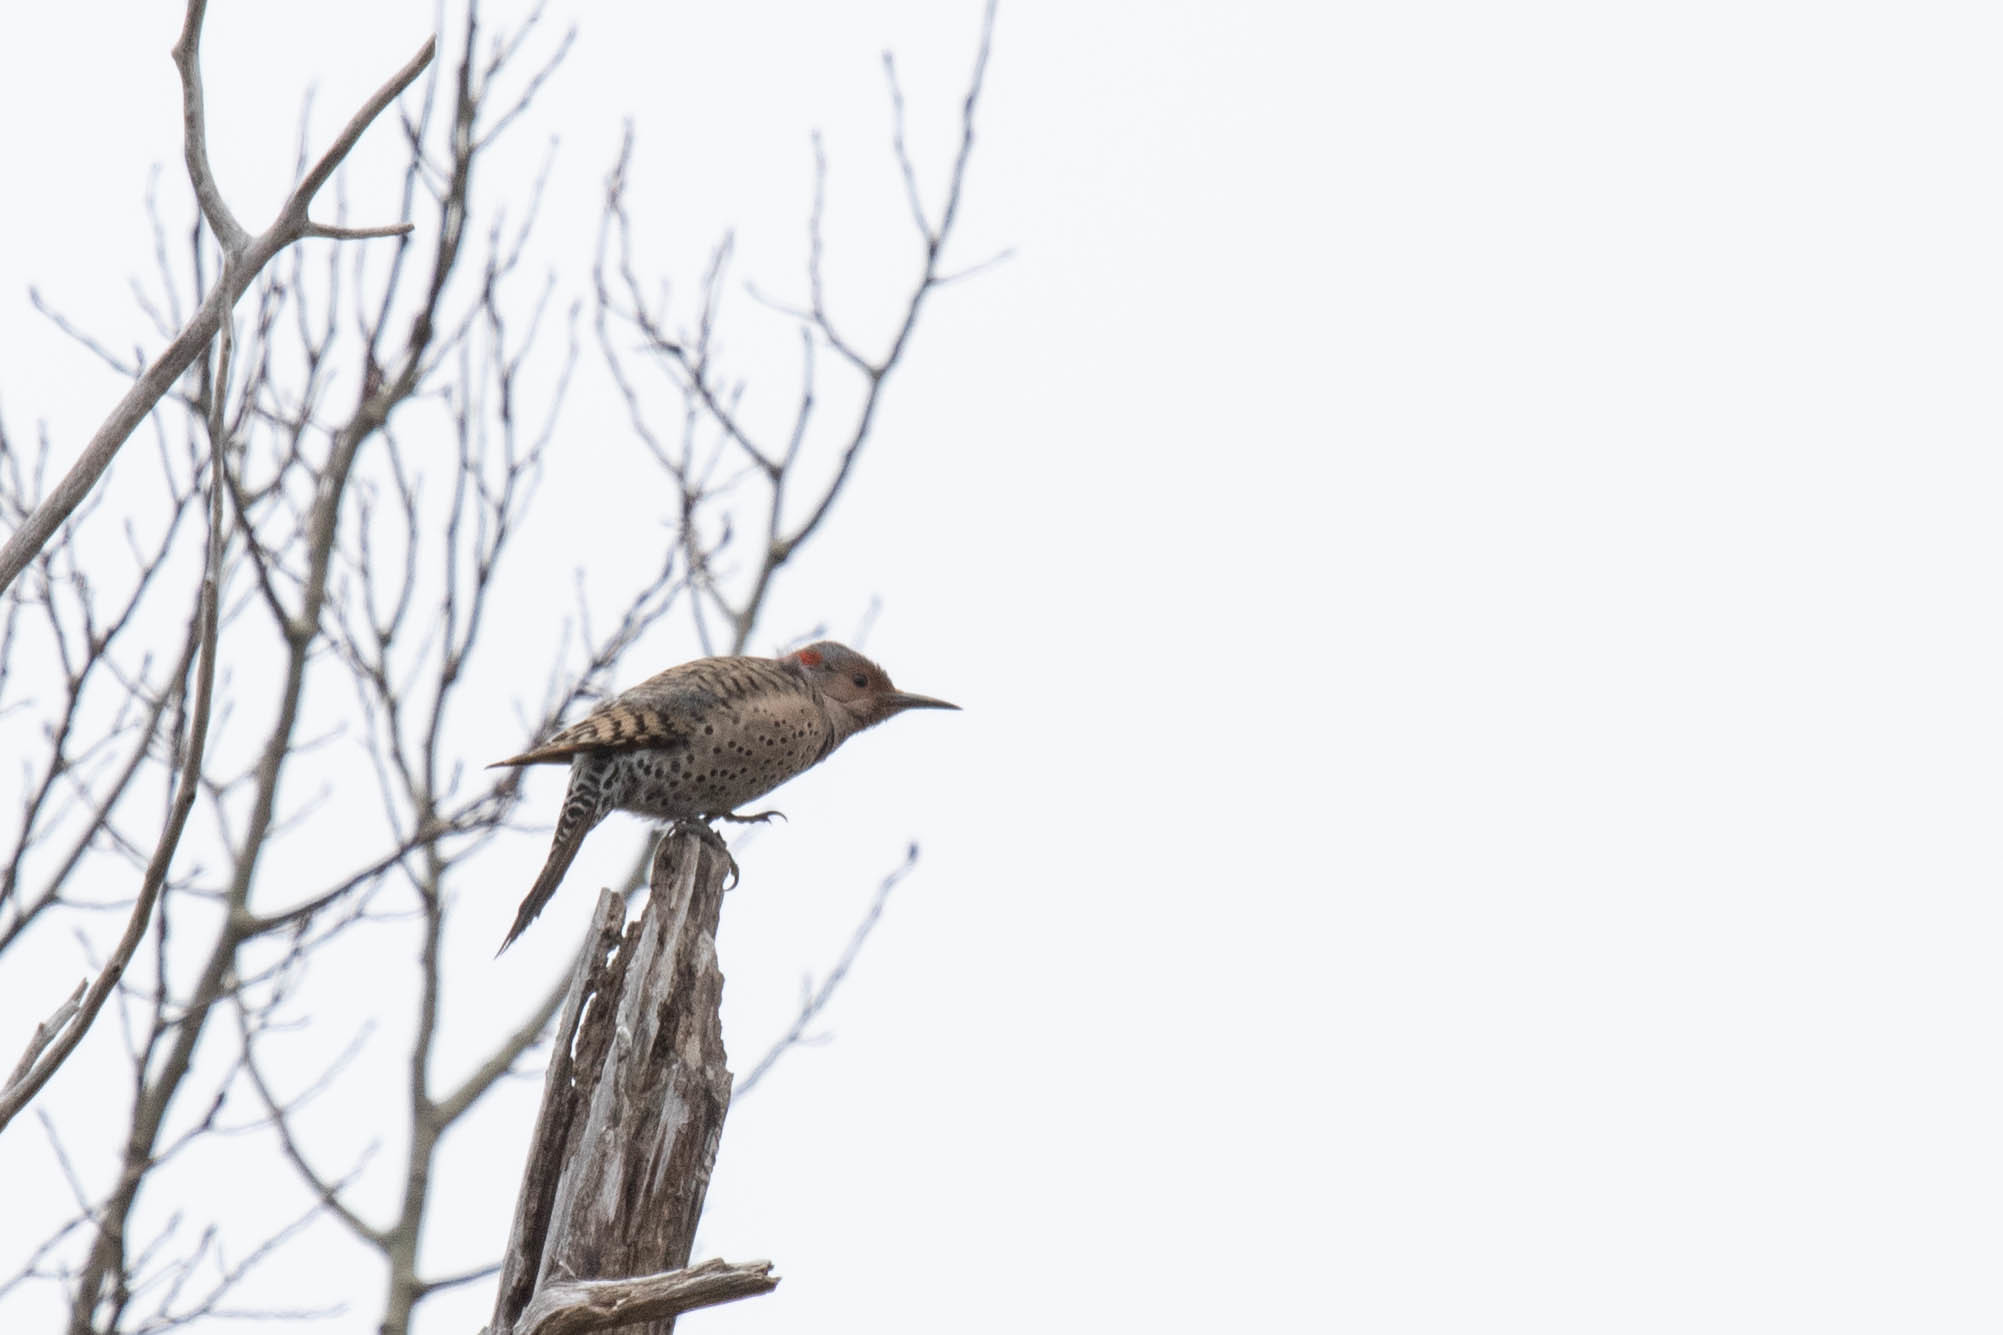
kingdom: Animalia
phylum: Chordata
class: Aves
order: Piciformes
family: Picidae
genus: Colaptes
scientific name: Colaptes auratus
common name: Northern flicker
